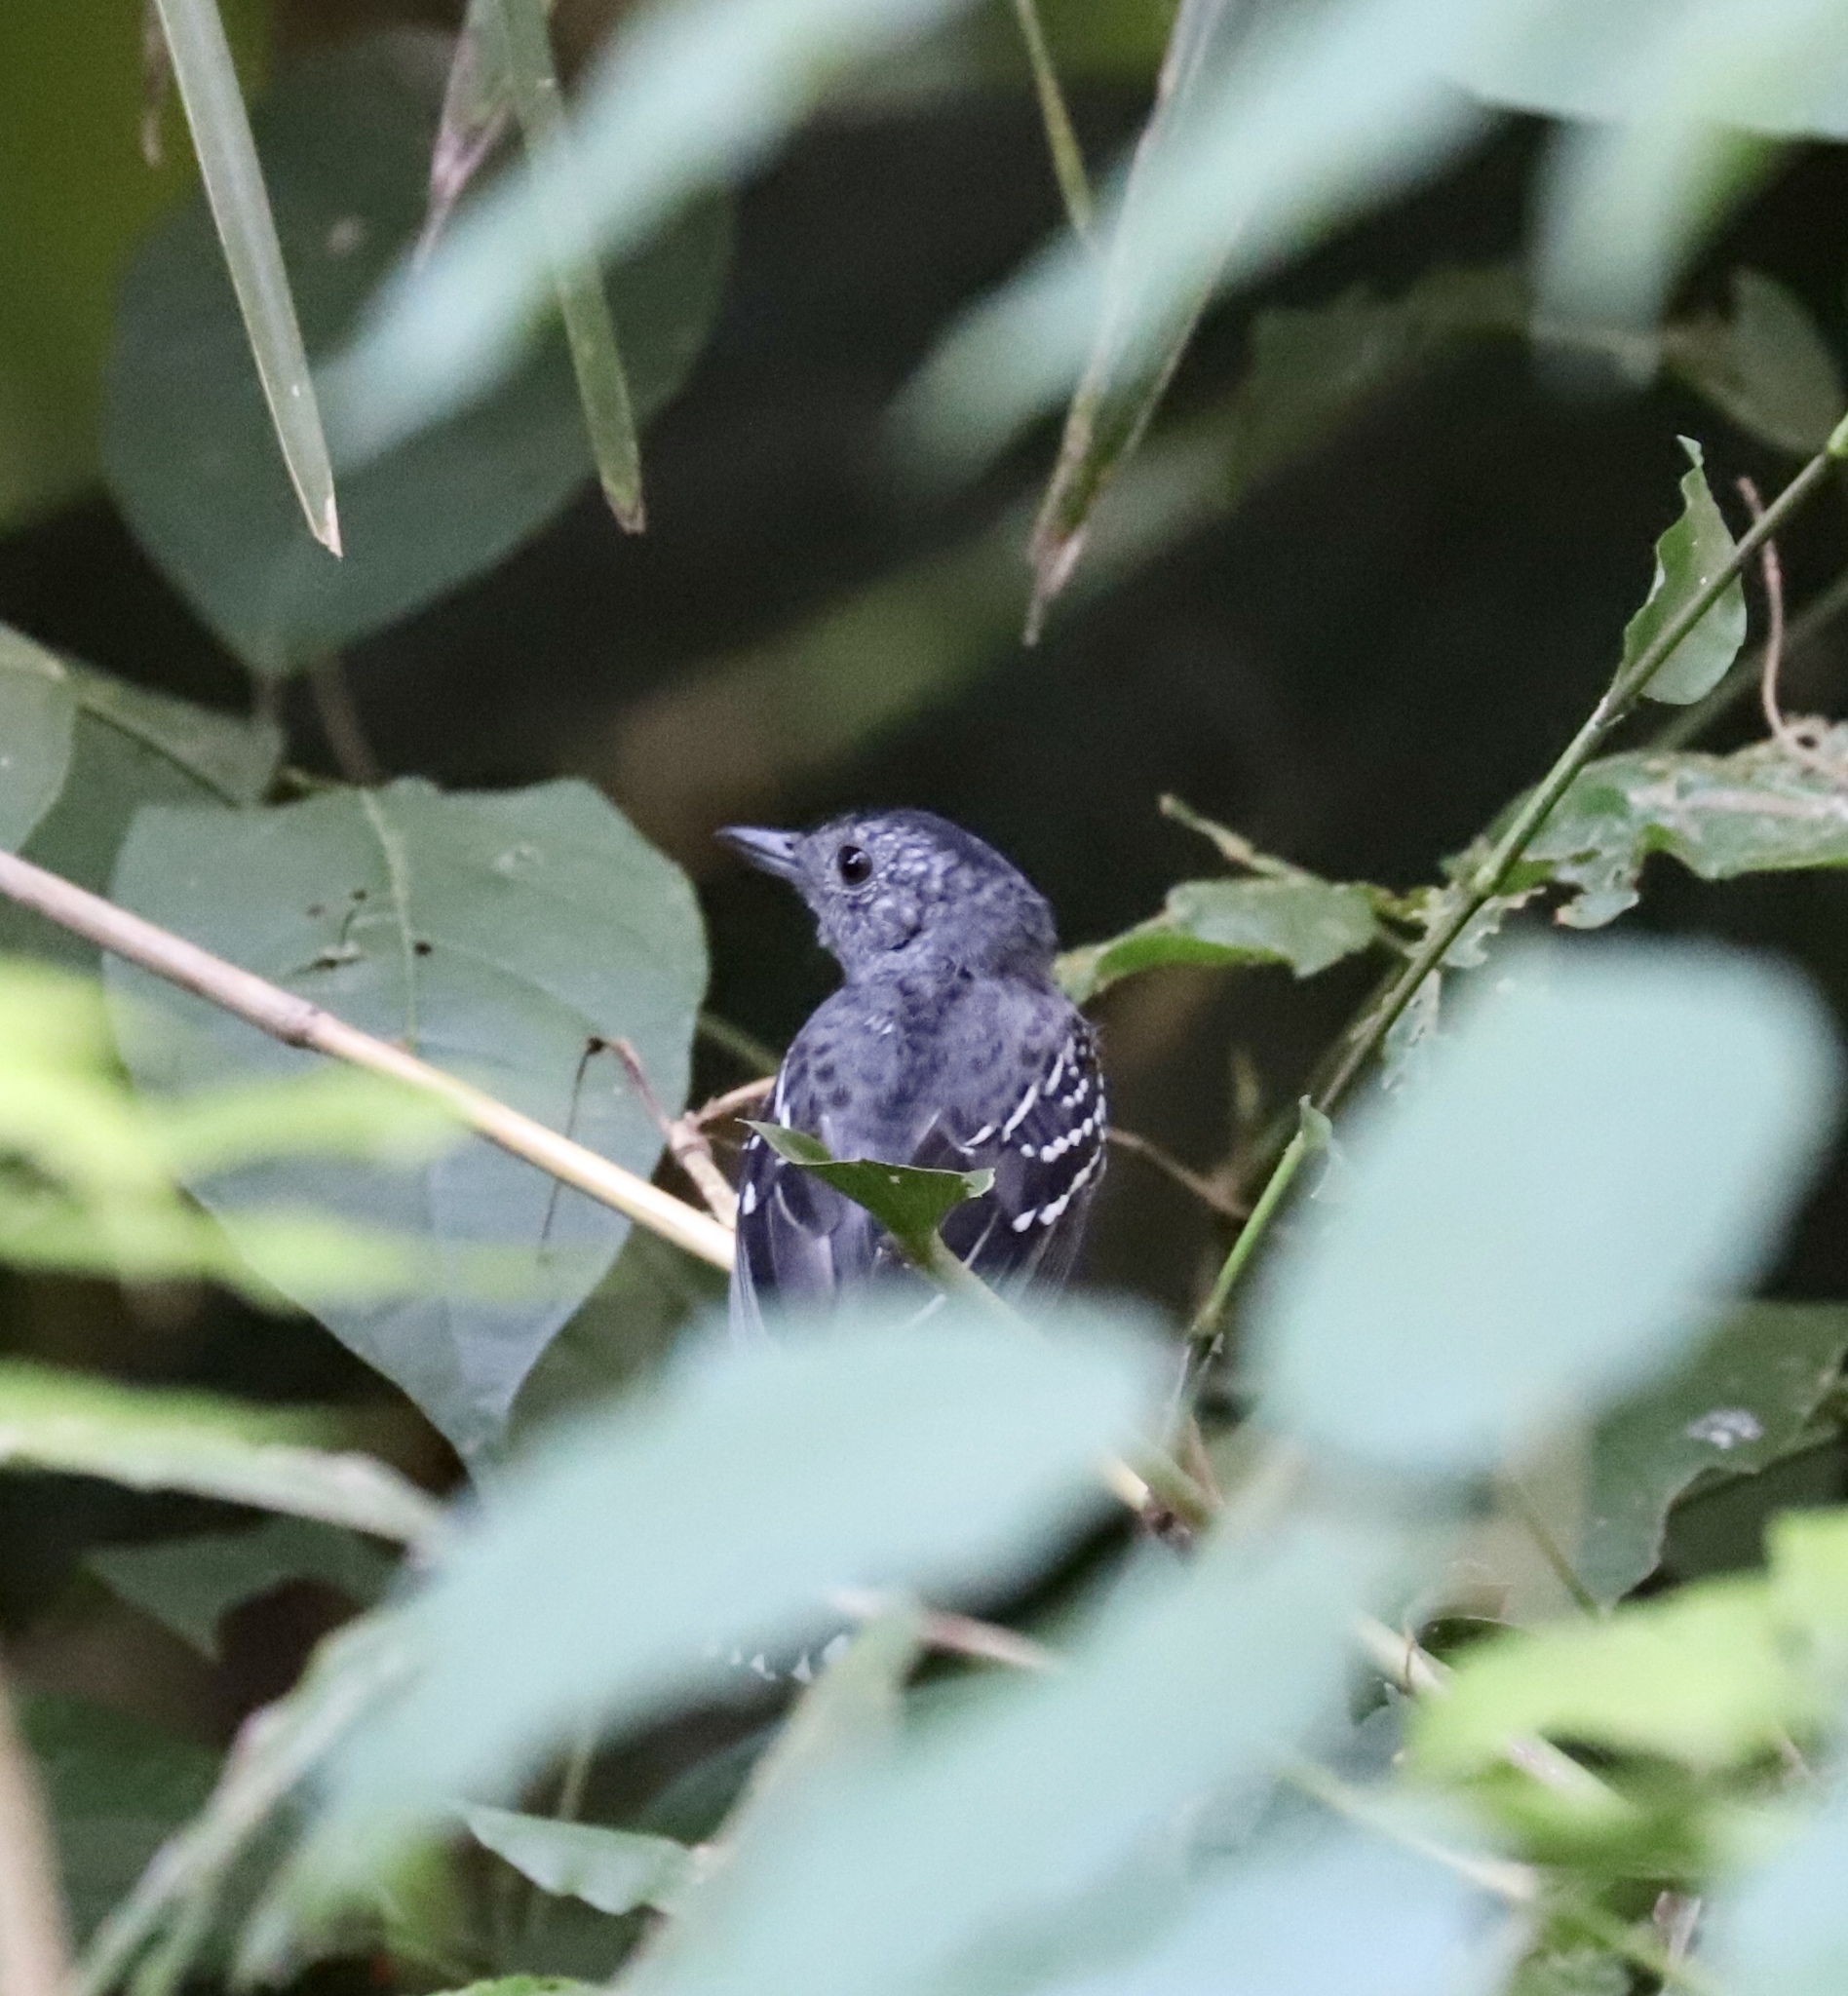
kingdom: Animalia
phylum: Chordata
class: Aves
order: Passeriformes
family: Thamnophilidae
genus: Thamnophilus
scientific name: Thamnophilus atrinucha
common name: Black-crowned antshrike
